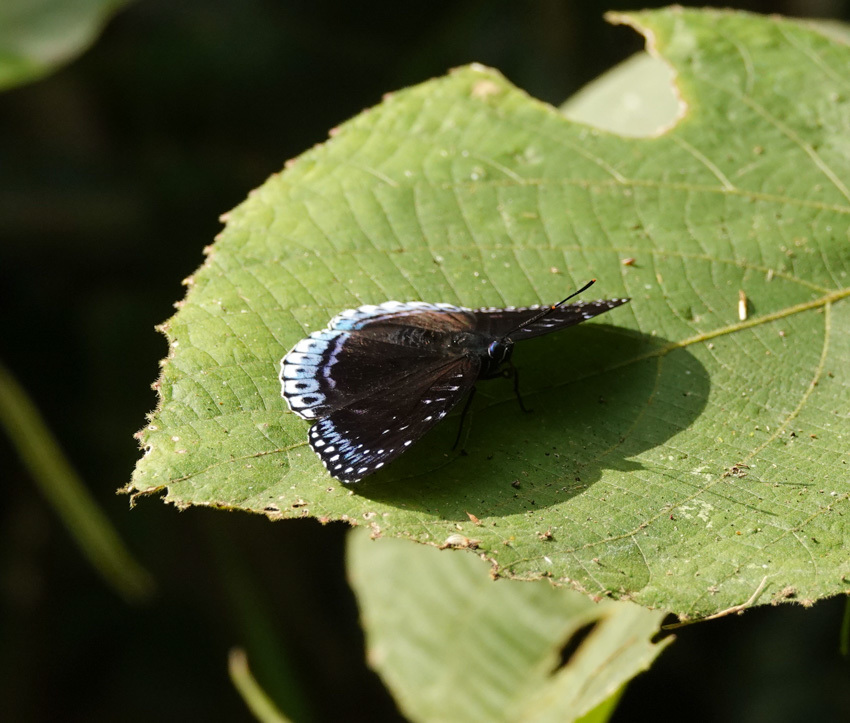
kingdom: Animalia
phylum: Arthropoda
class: Insecta
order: Lepidoptera
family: Nymphalidae
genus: Stibochiona
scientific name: Stibochiona nicea
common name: Popinjay
